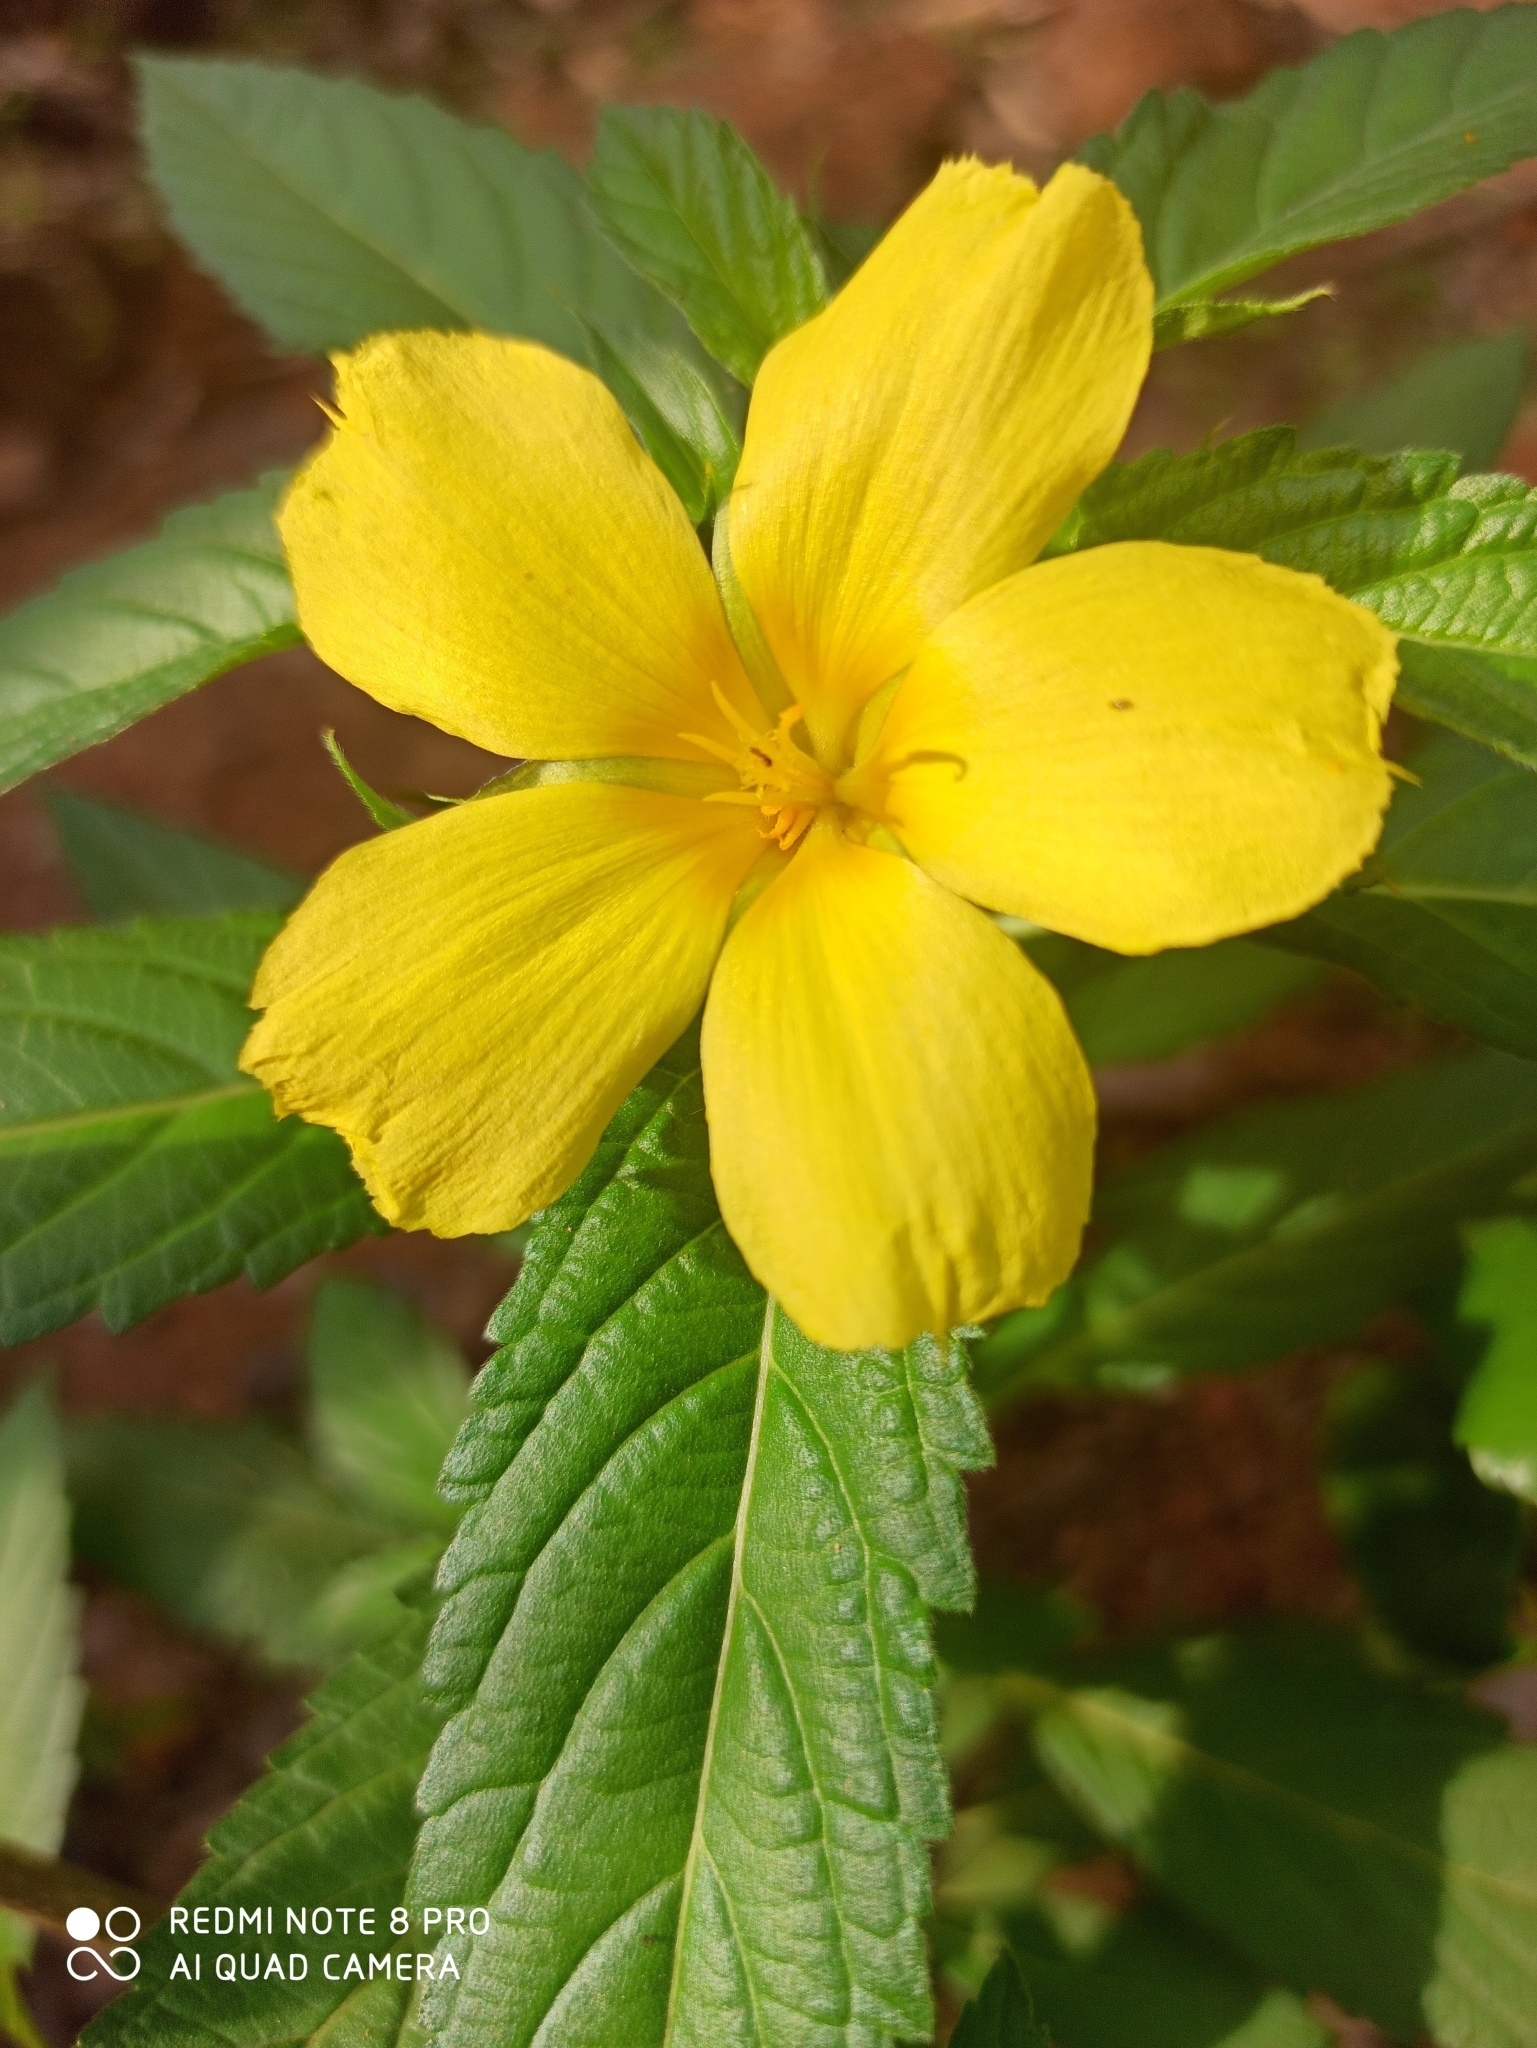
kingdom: Plantae
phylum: Tracheophyta
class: Magnoliopsida
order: Malpighiales
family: Turneraceae
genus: Turnera
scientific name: Turnera ulmifolia
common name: Ramgoat dashalong
